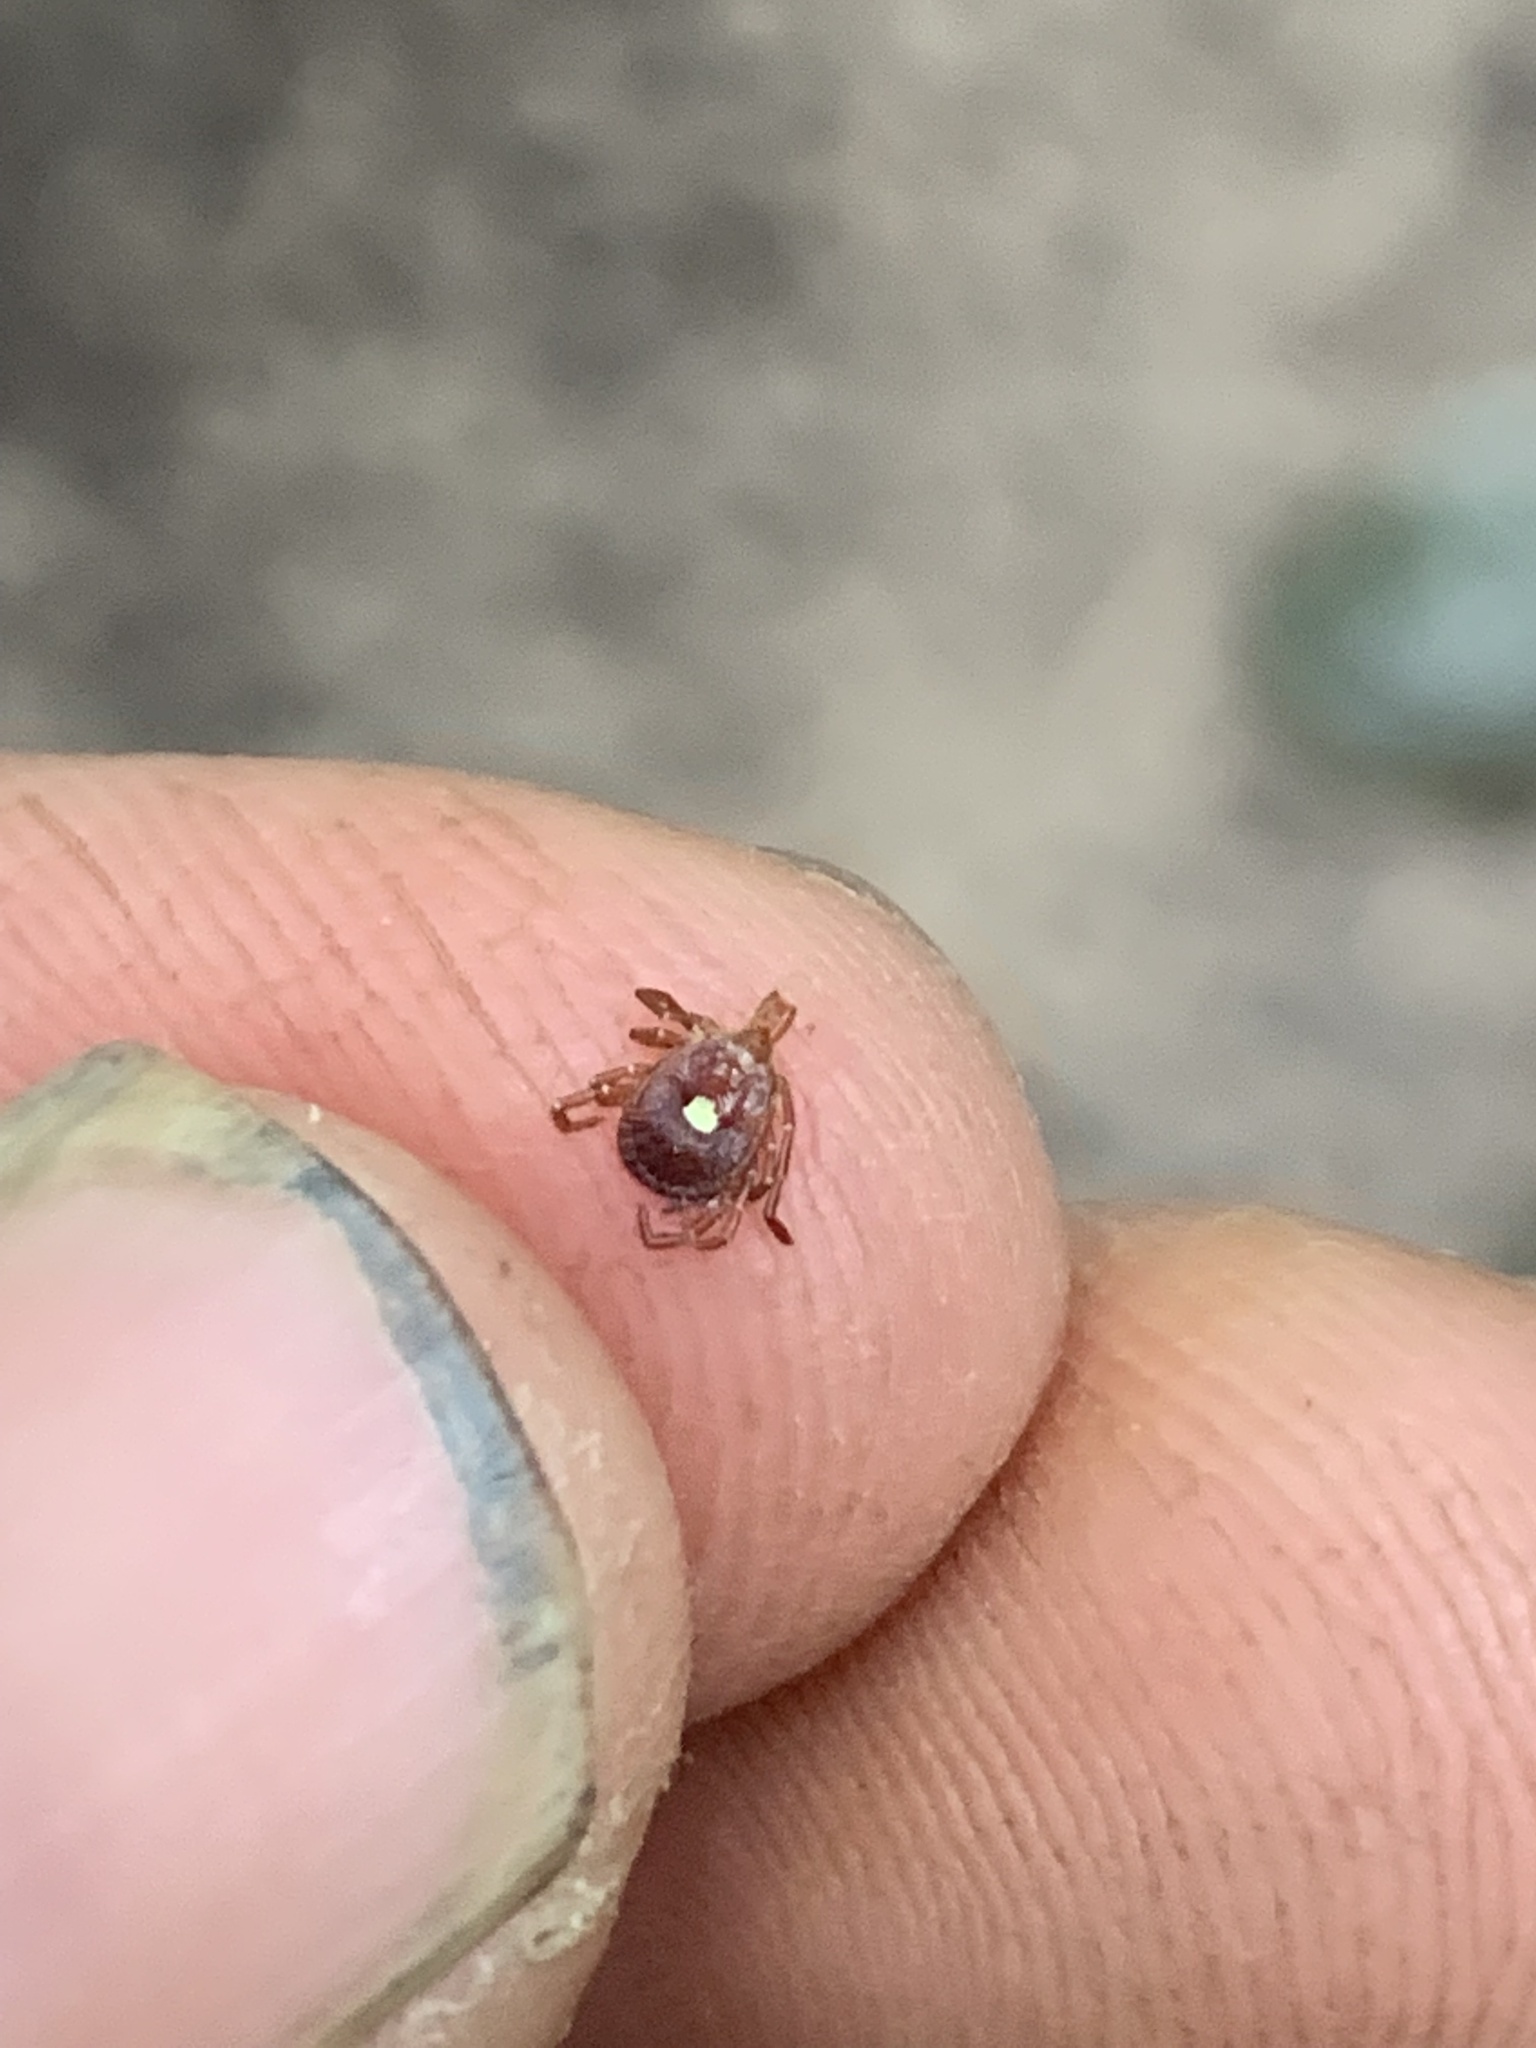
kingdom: Animalia
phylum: Arthropoda
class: Arachnida
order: Ixodida
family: Ixodidae
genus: Amblyomma
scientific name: Amblyomma americanum
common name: Lone star tick
